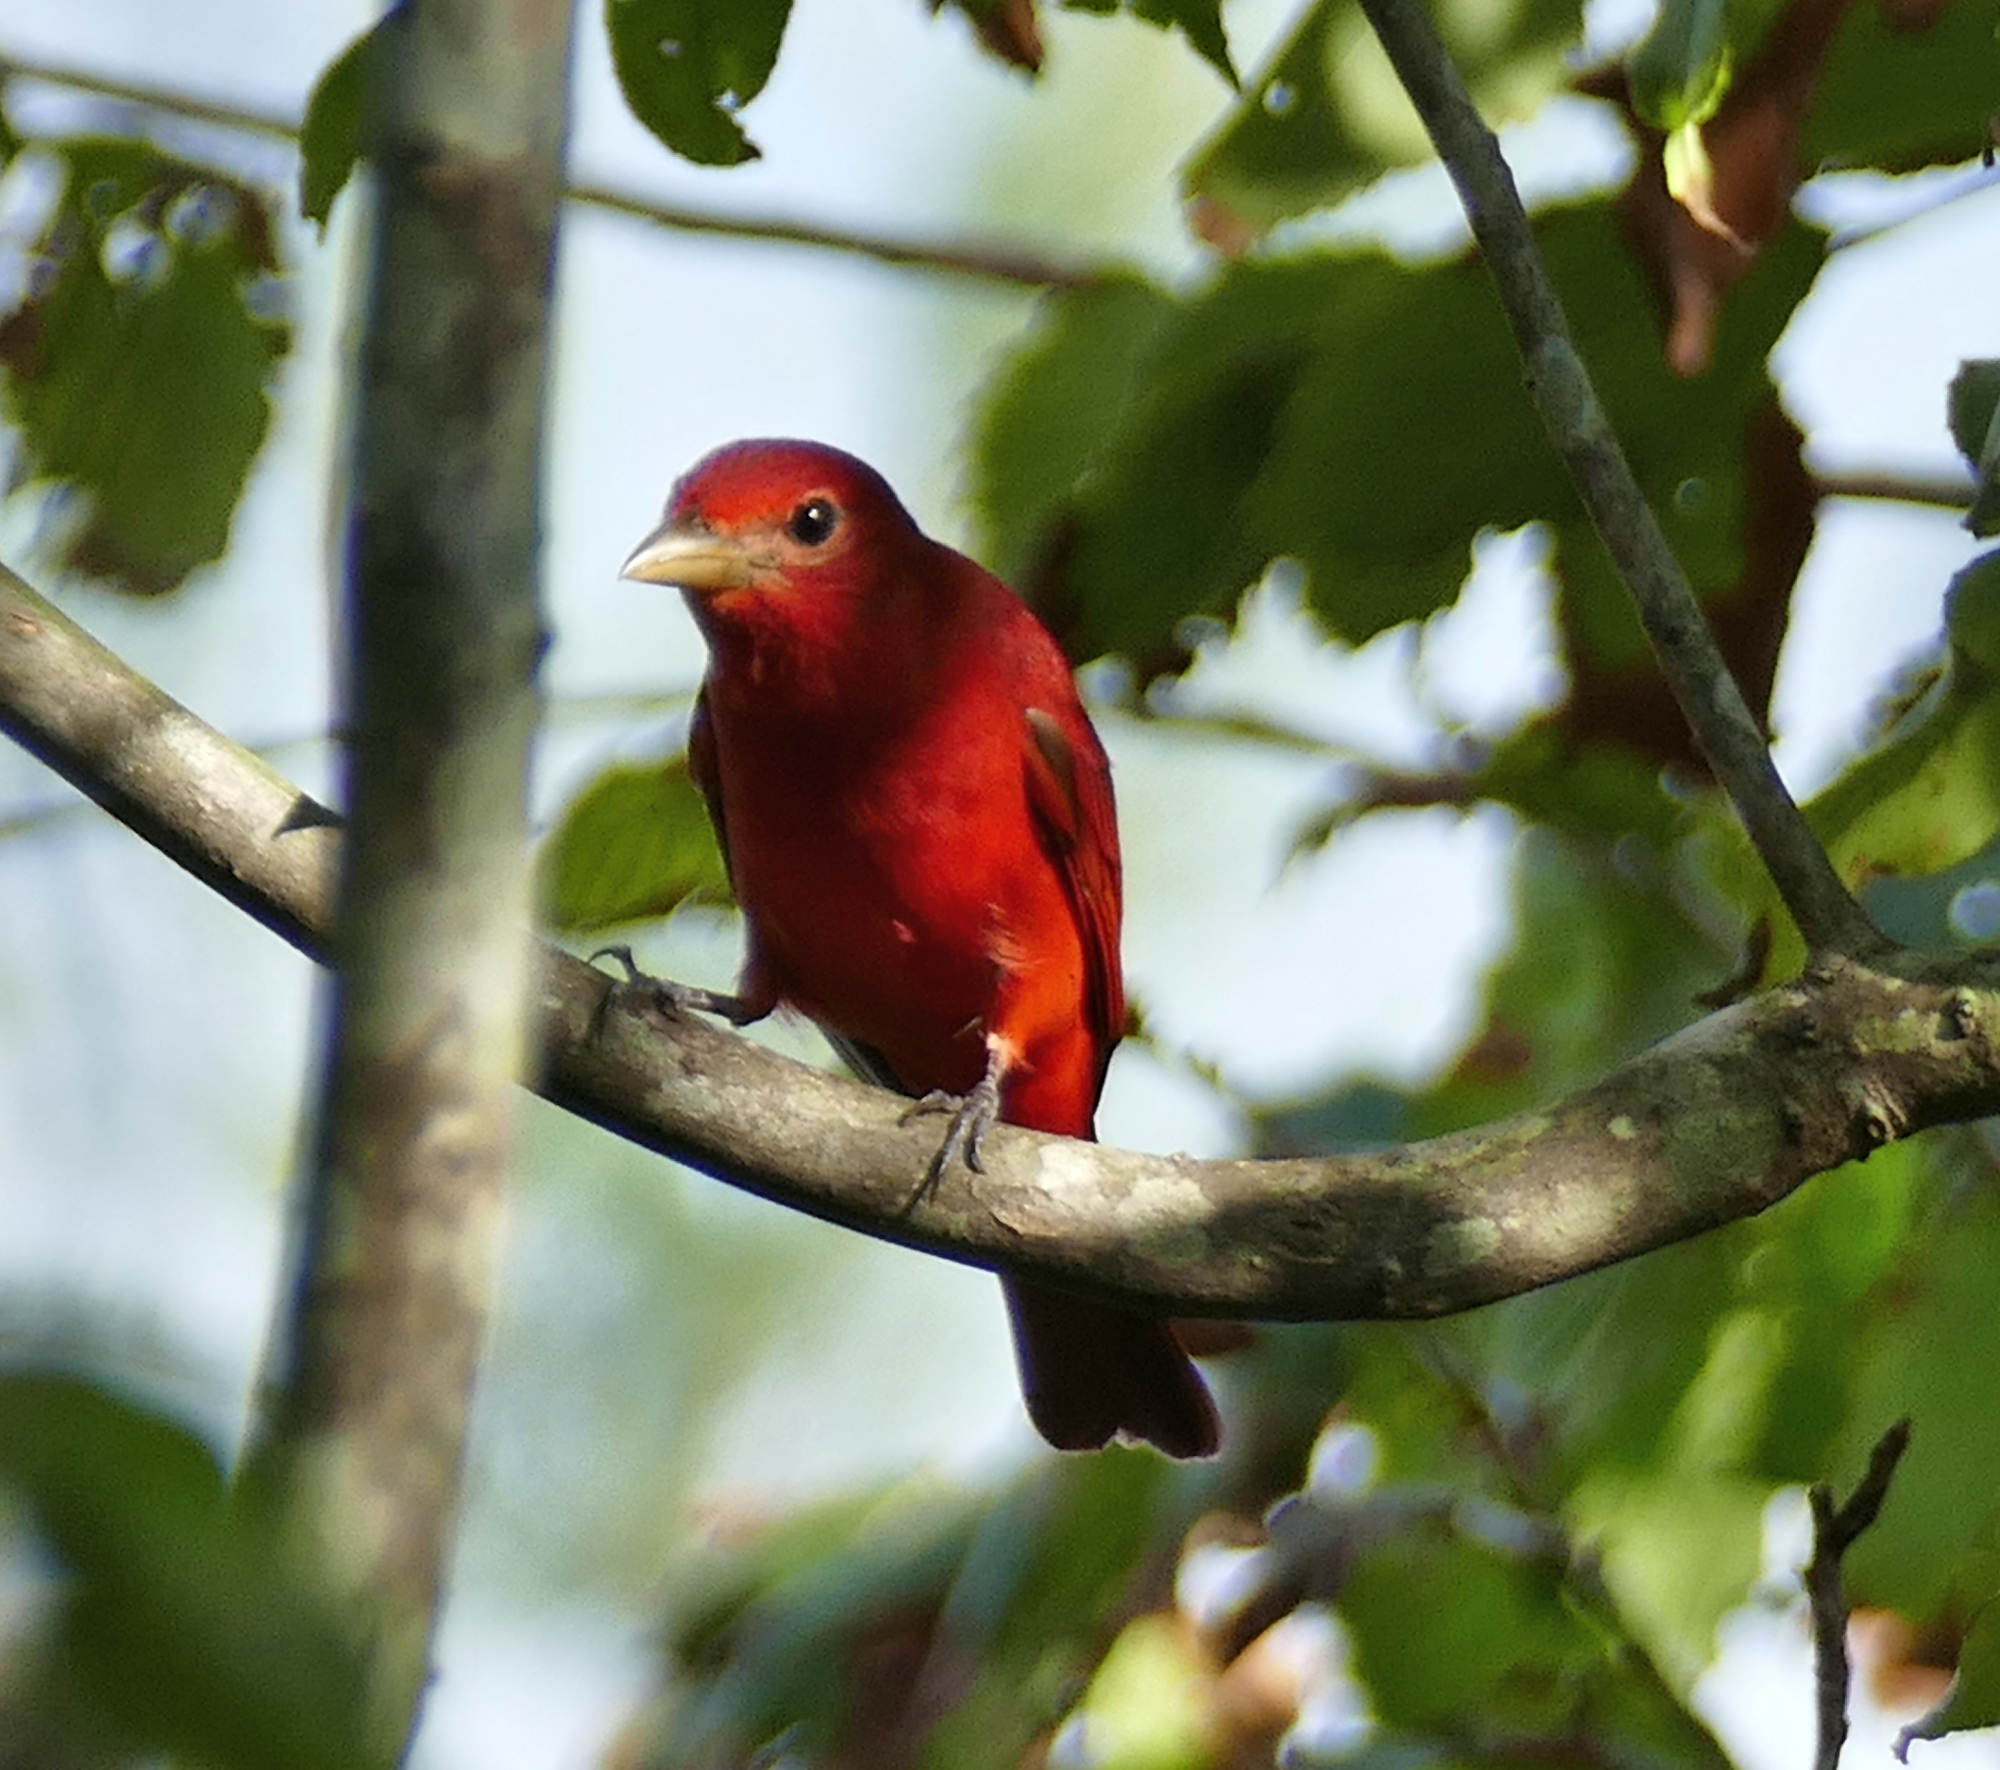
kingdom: Animalia
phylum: Chordata
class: Aves
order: Passeriformes
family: Cardinalidae
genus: Piranga
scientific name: Piranga rubra
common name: Summer tanager
